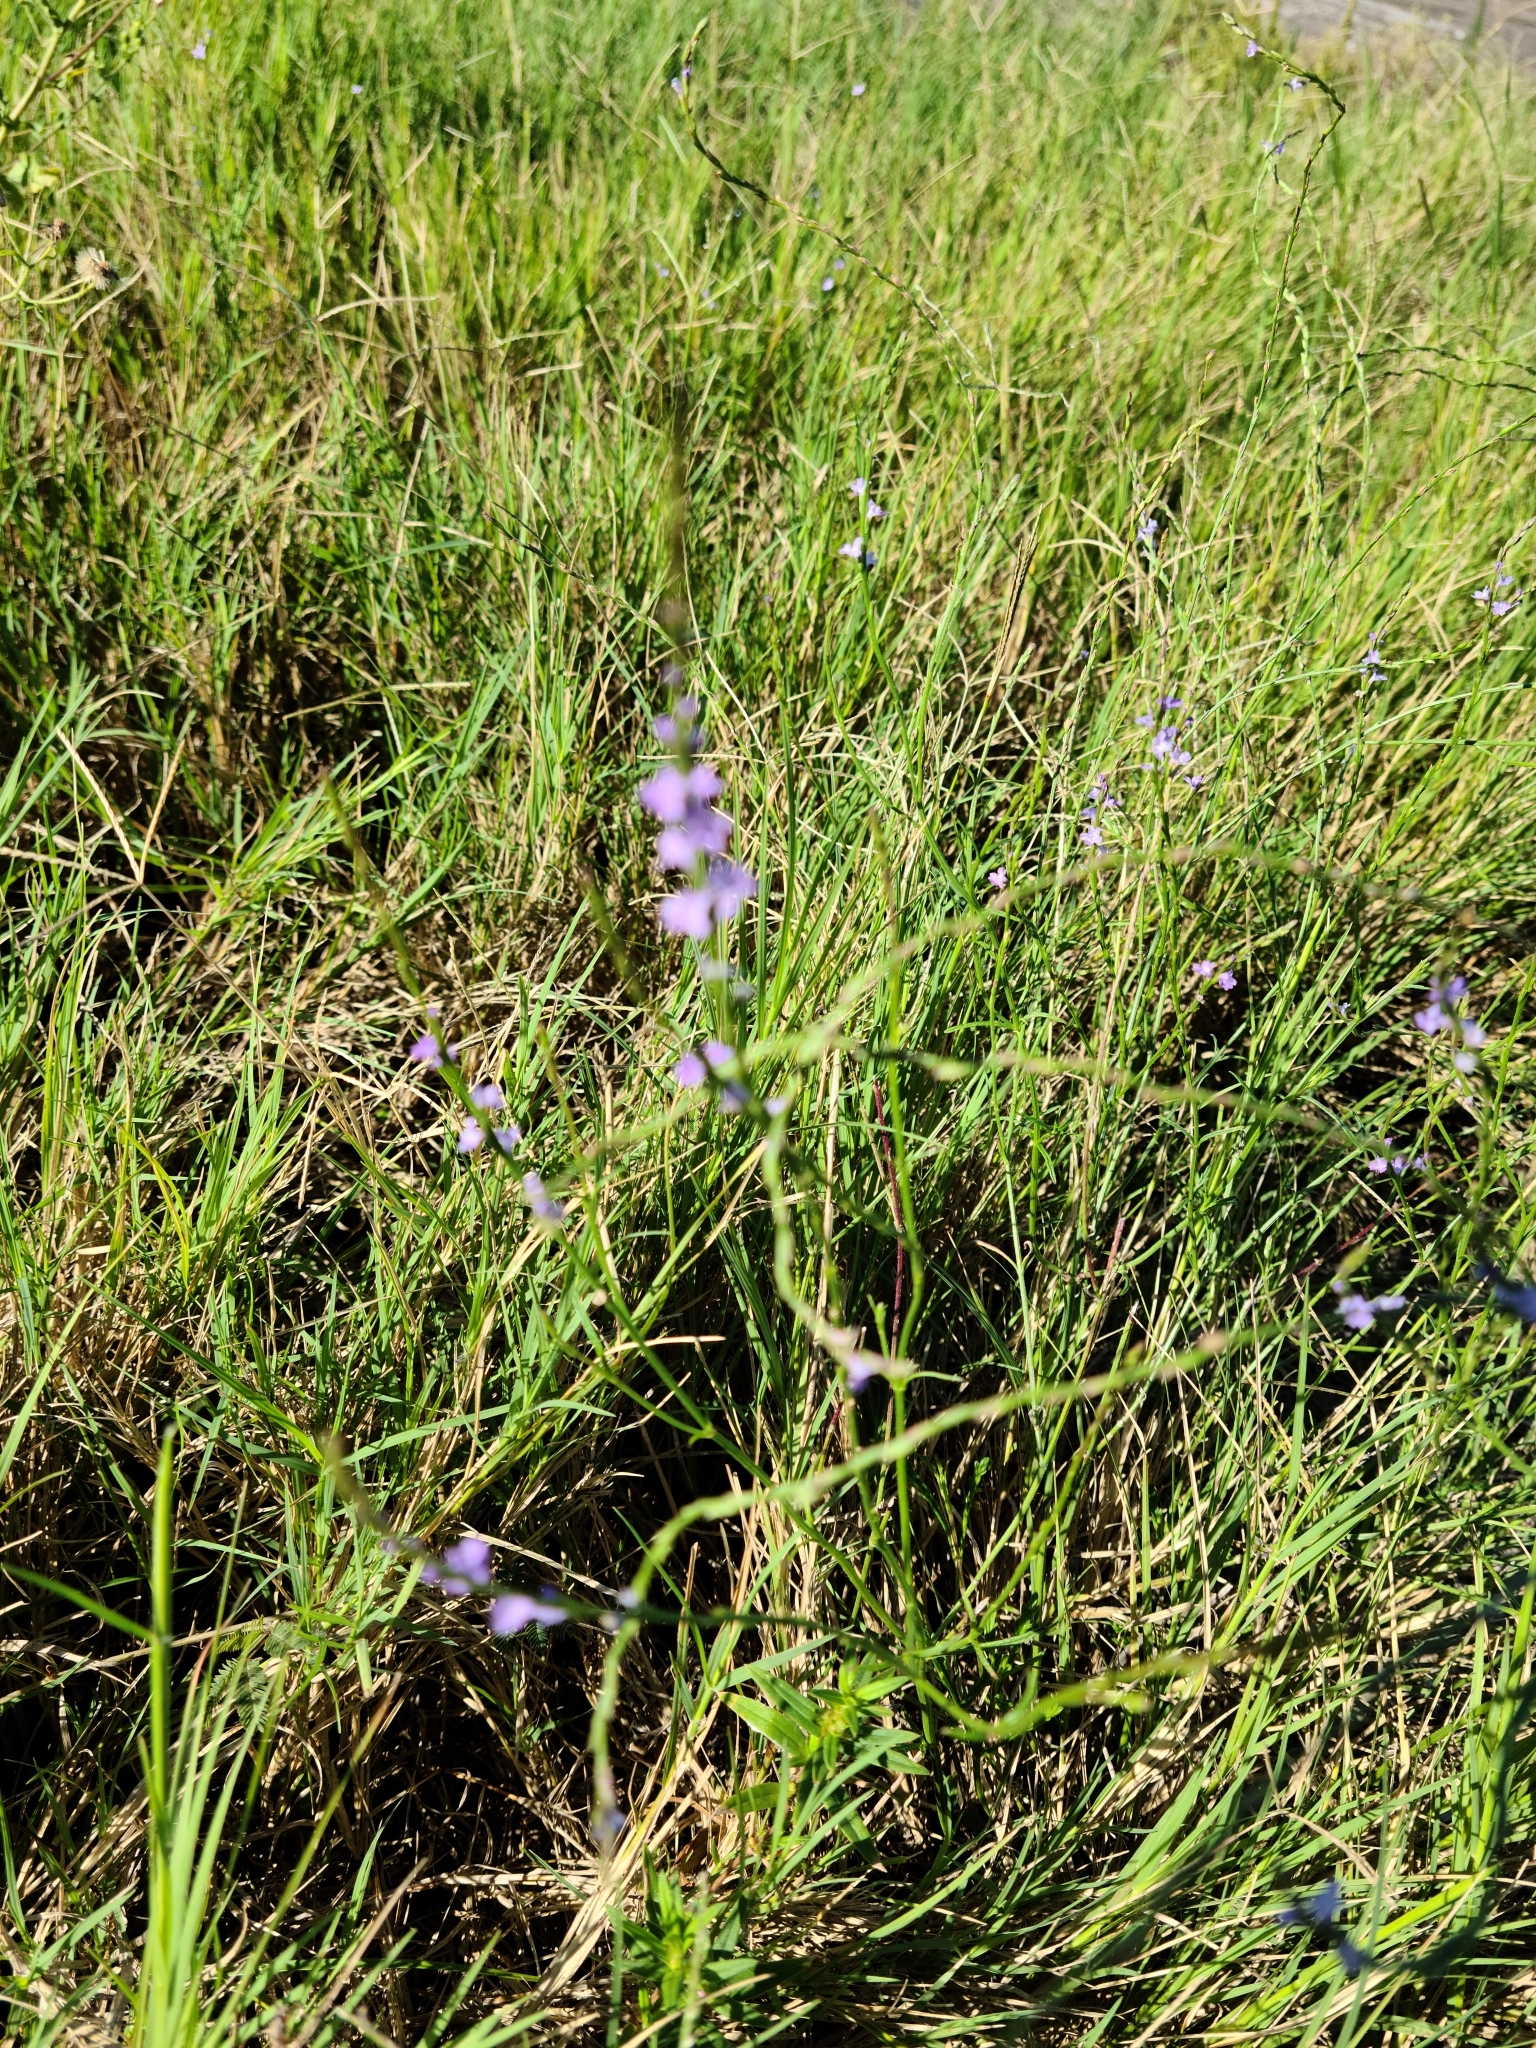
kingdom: Plantae
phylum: Tracheophyta
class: Magnoliopsida
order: Lamiales
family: Verbenaceae
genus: Verbena
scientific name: Verbena halei
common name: Texas vervain
